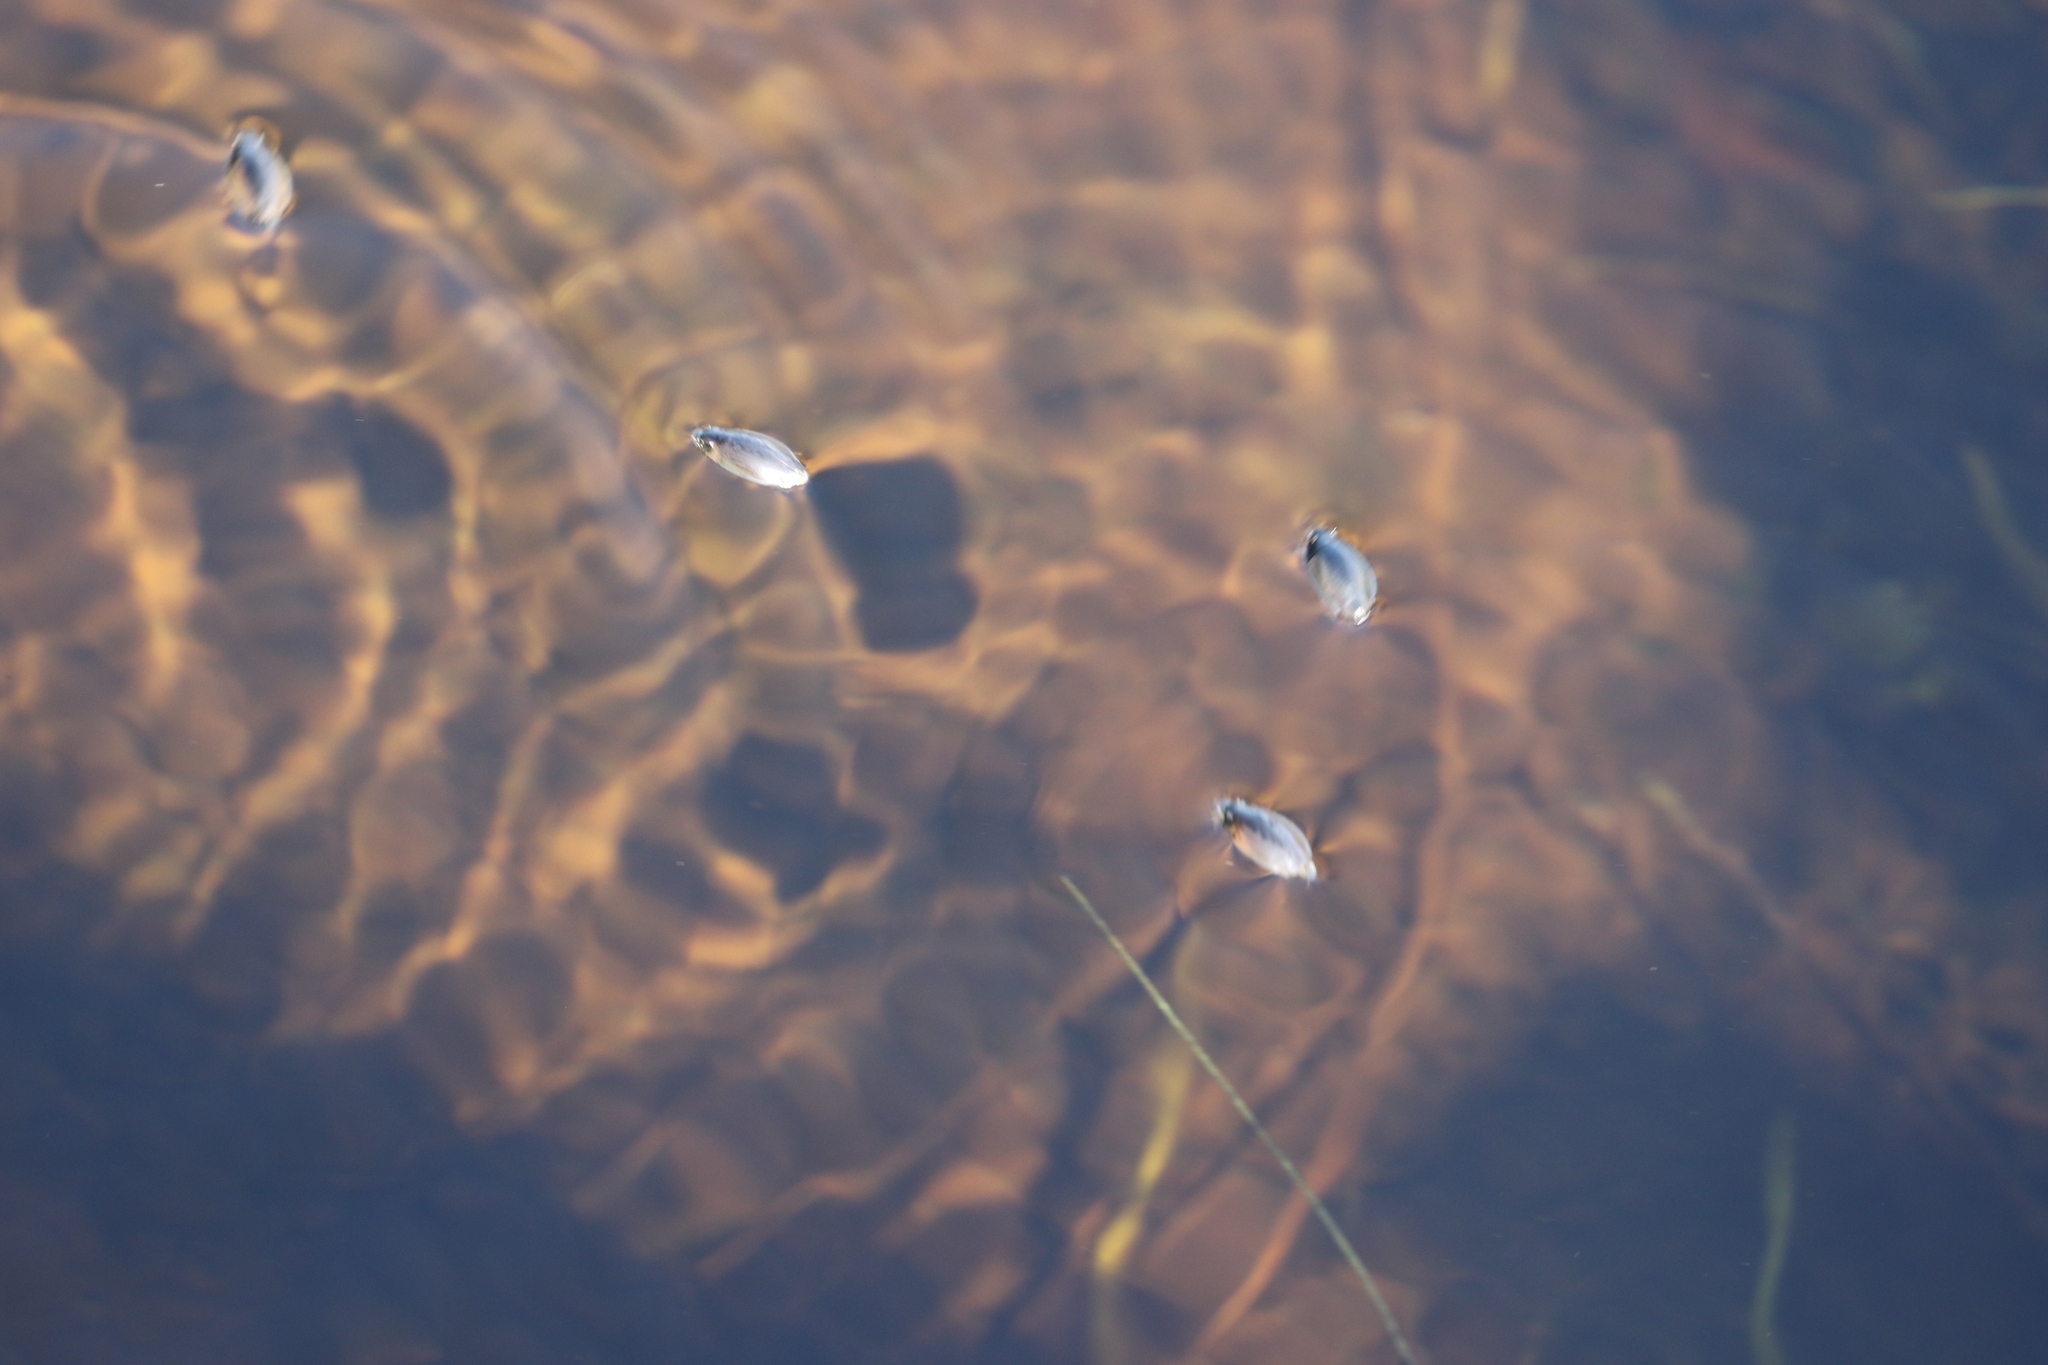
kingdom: Animalia
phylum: Arthropoda
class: Insecta
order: Coleoptera
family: Gyrinidae
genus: Dineutus
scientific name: Dineutus
